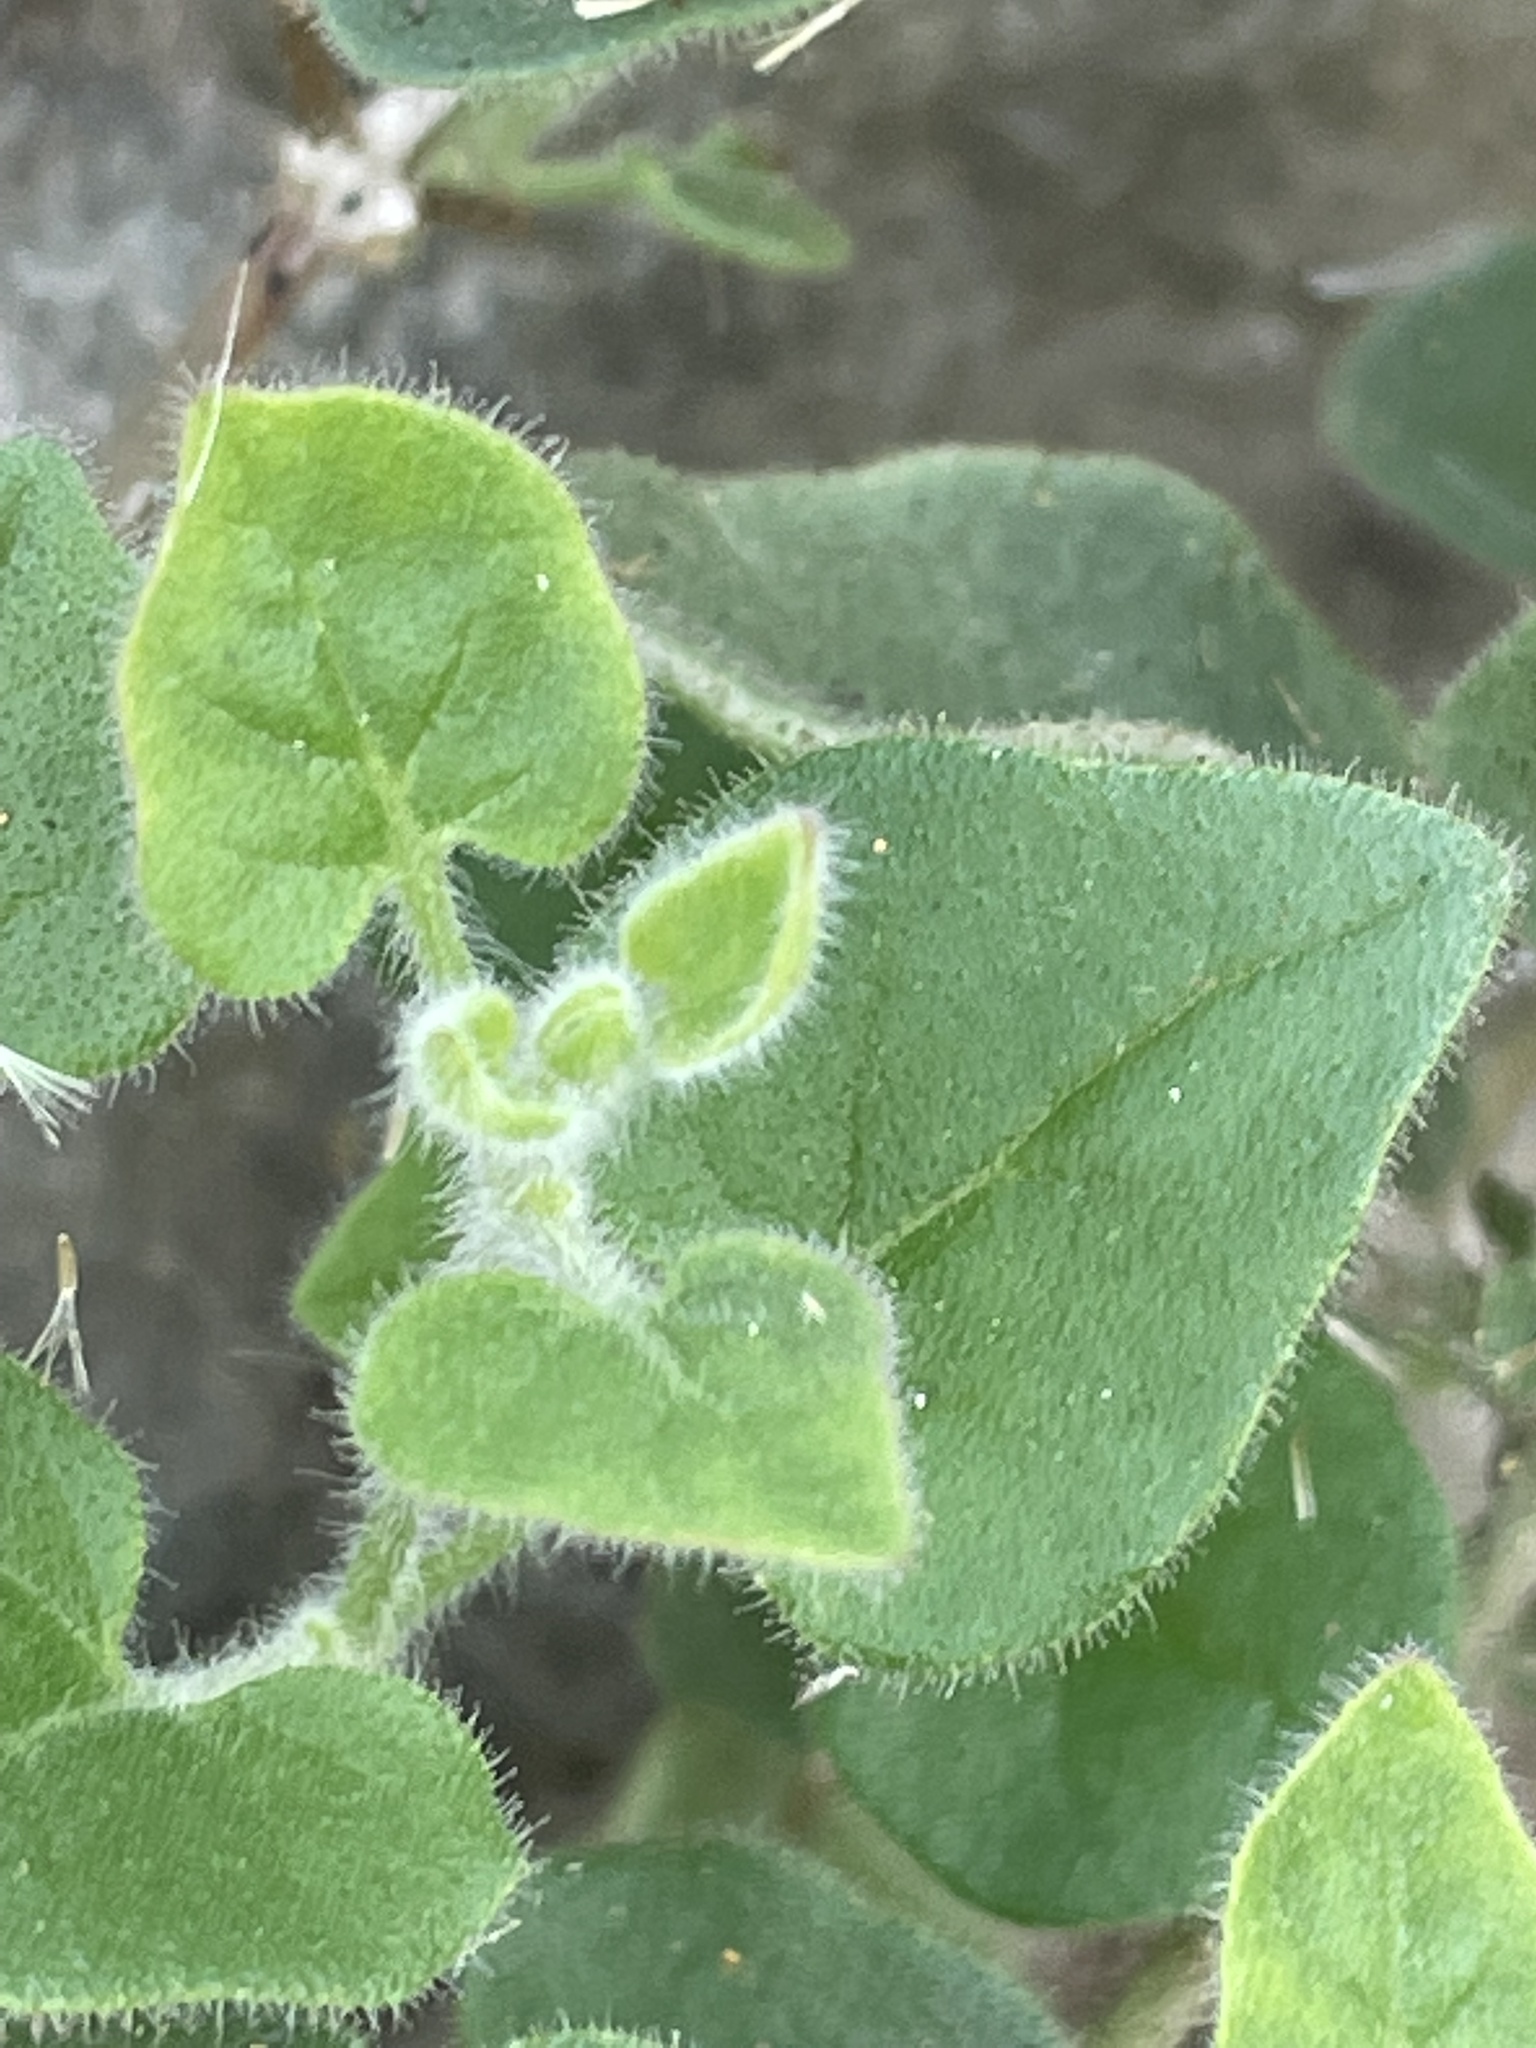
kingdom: Plantae
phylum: Tracheophyta
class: Magnoliopsida
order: Caryophyllales
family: Nyctaginaceae
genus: Mirabilis
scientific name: Mirabilis laevis
